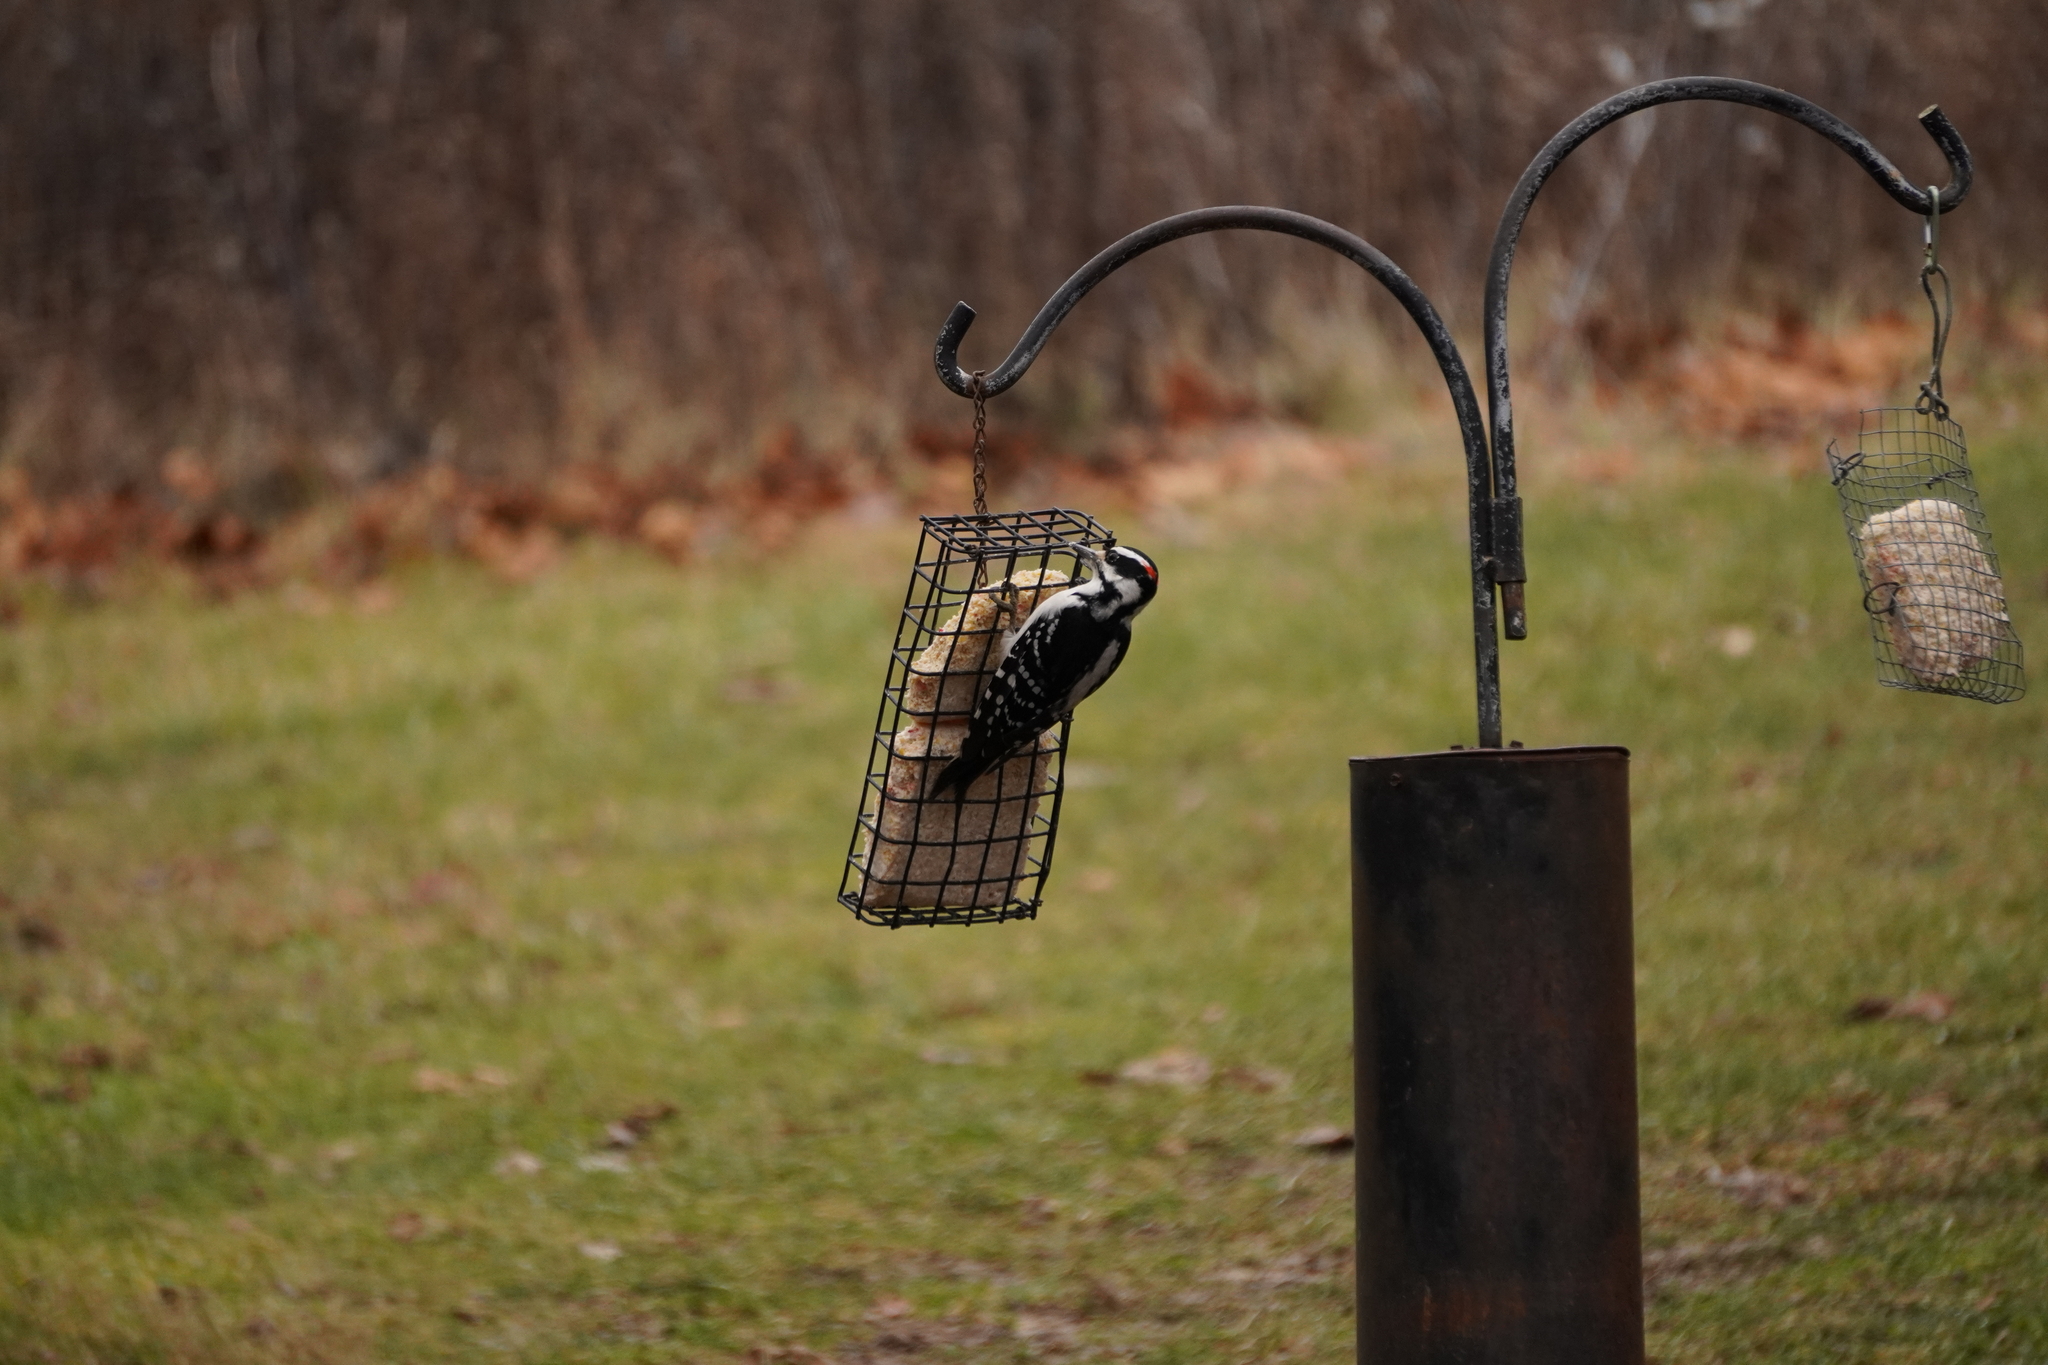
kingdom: Animalia
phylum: Chordata
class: Aves
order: Piciformes
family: Picidae
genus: Leuconotopicus
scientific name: Leuconotopicus villosus
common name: Hairy woodpecker
